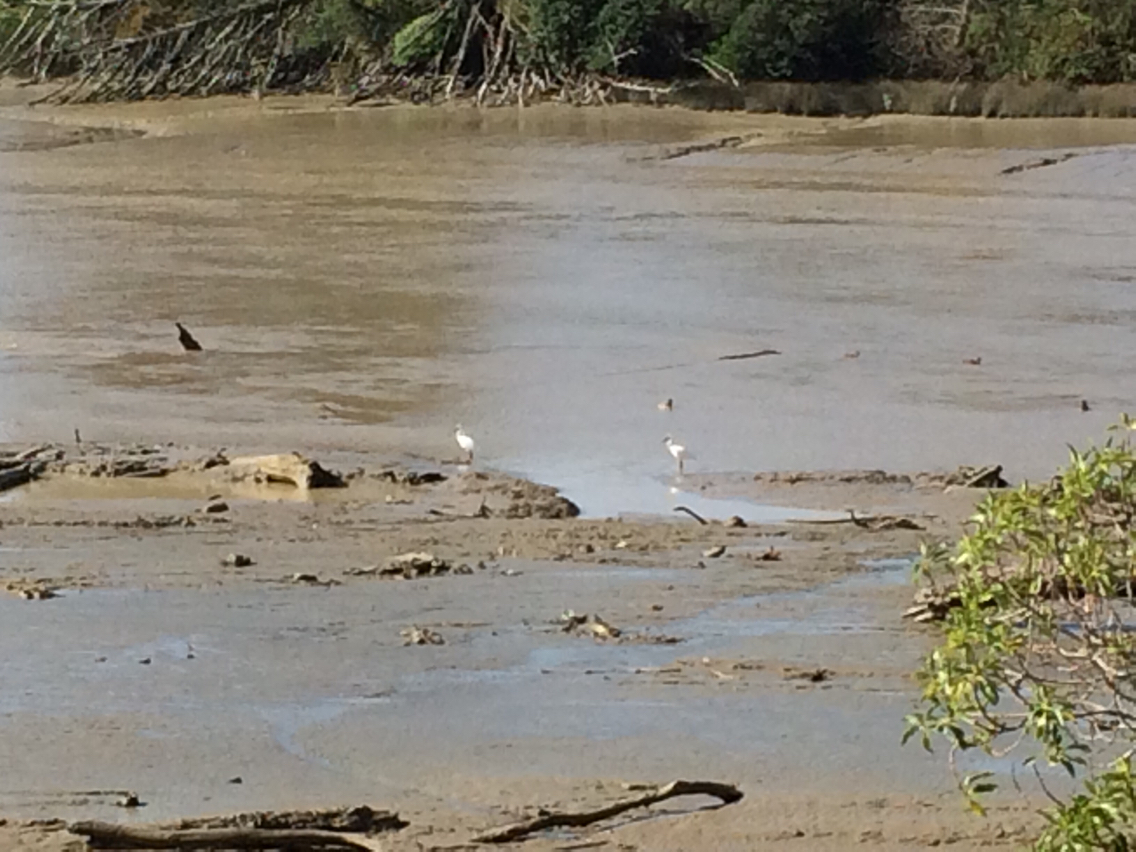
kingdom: Animalia
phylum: Chordata
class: Aves
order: Pelecaniformes
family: Threskiornithidae
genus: Platalea
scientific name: Platalea regia
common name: Royal spoonbill
